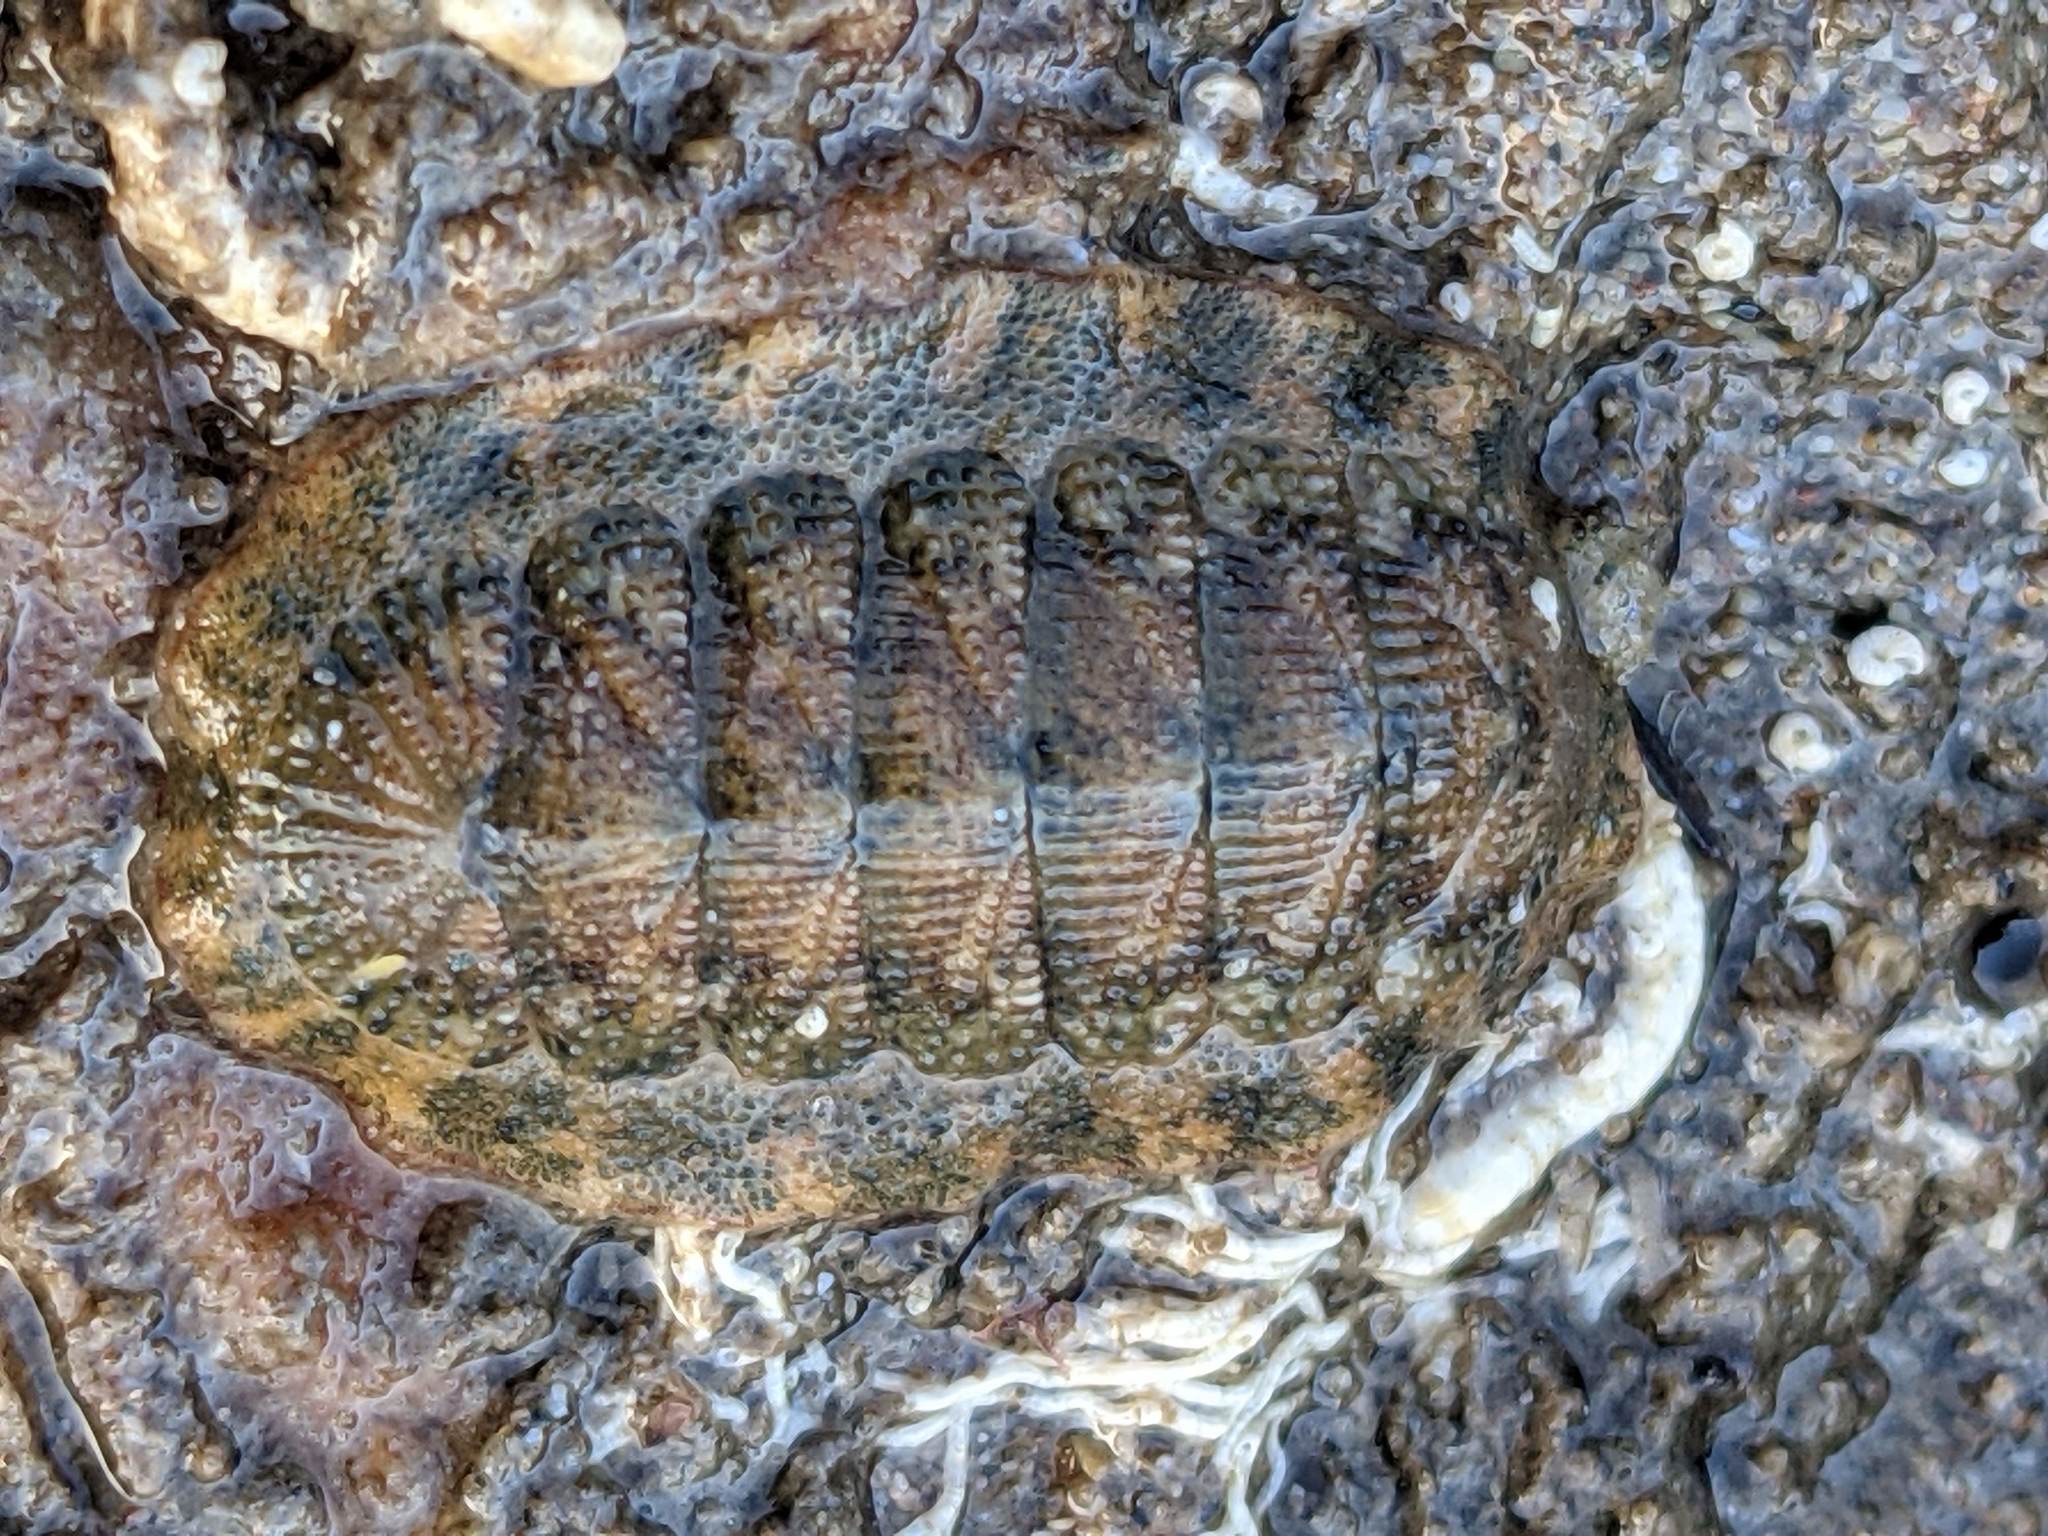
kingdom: Animalia
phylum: Mollusca
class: Polyplacophora
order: Chitonida
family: Ischnochitonidae
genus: Lepidozona
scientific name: Lepidozona pectinulata
